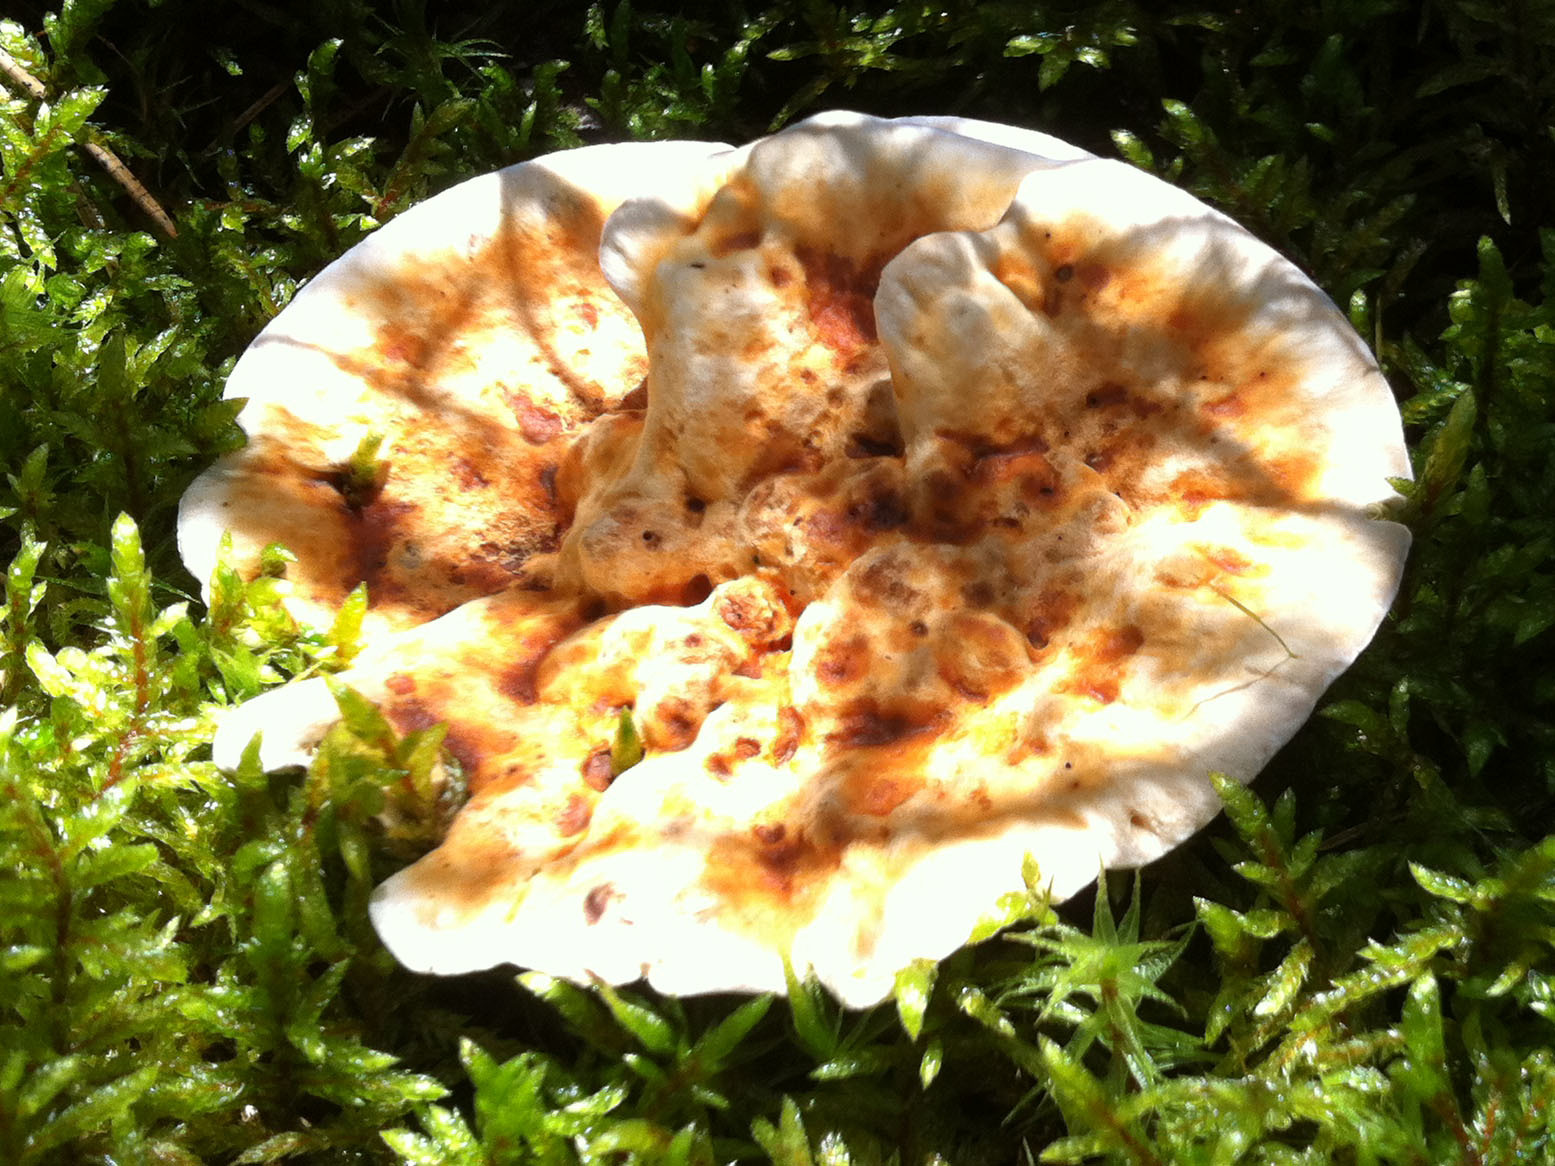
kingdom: Fungi
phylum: Basidiomycota
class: Agaricomycetes
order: Thelephorales
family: Bankeraceae
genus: Hydnellum
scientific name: Hydnellum aurantiacum
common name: Orange tooth
